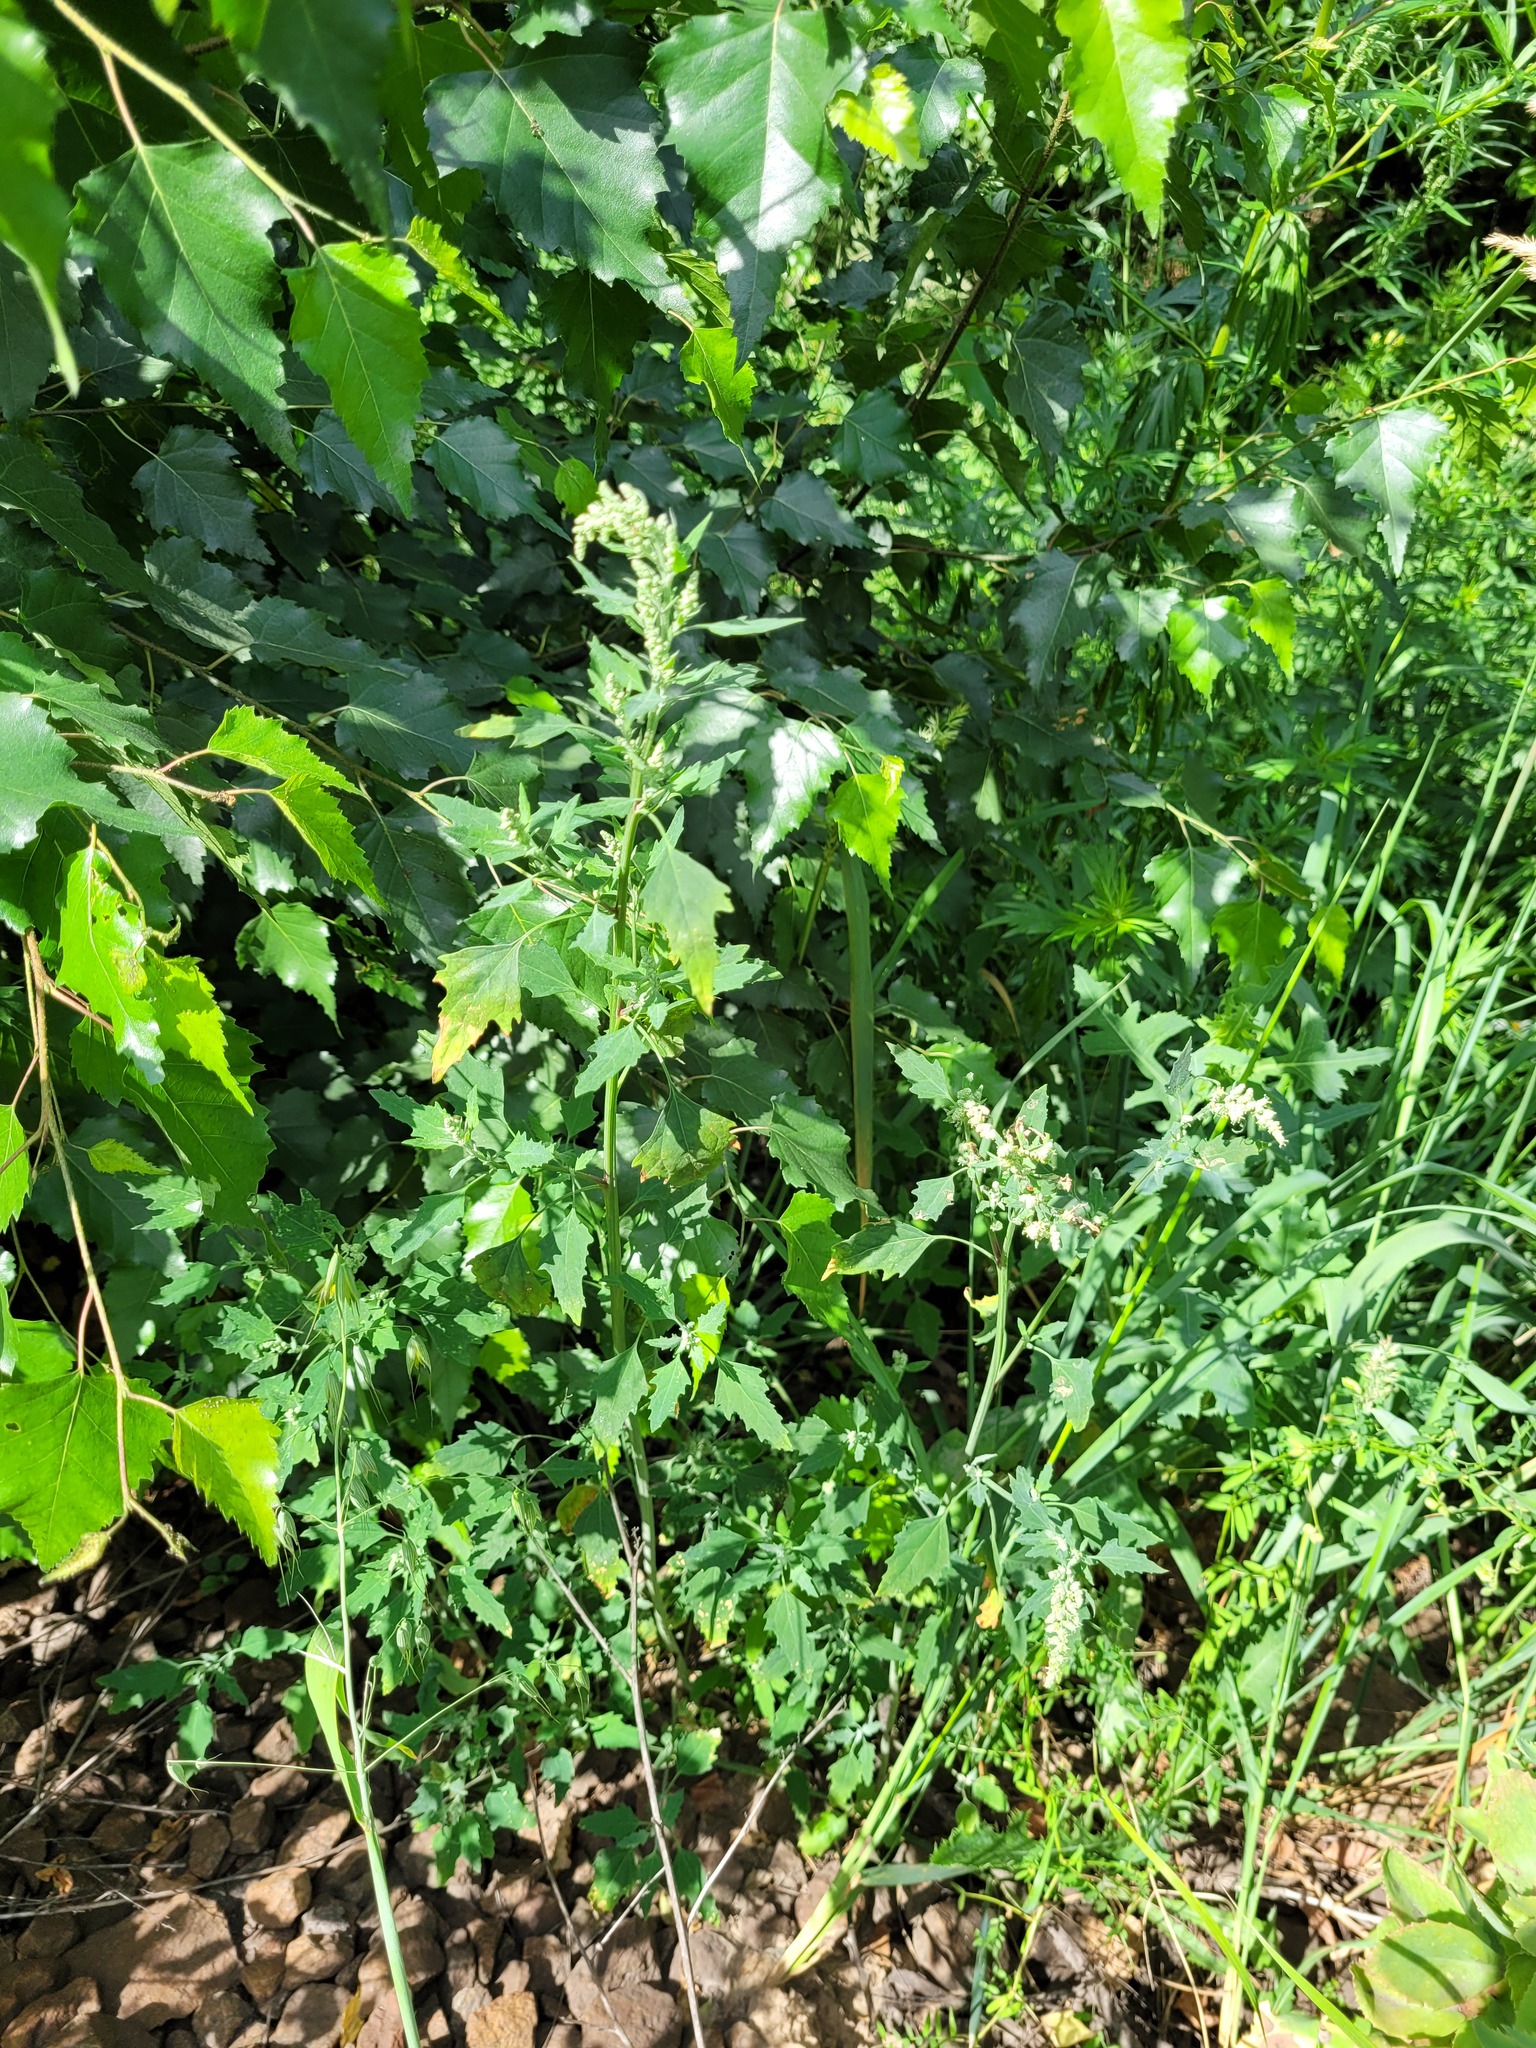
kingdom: Plantae
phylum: Tracheophyta
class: Magnoliopsida
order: Caryophyllales
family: Amaranthaceae
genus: Chenopodium
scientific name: Chenopodium album
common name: Fat-hen
